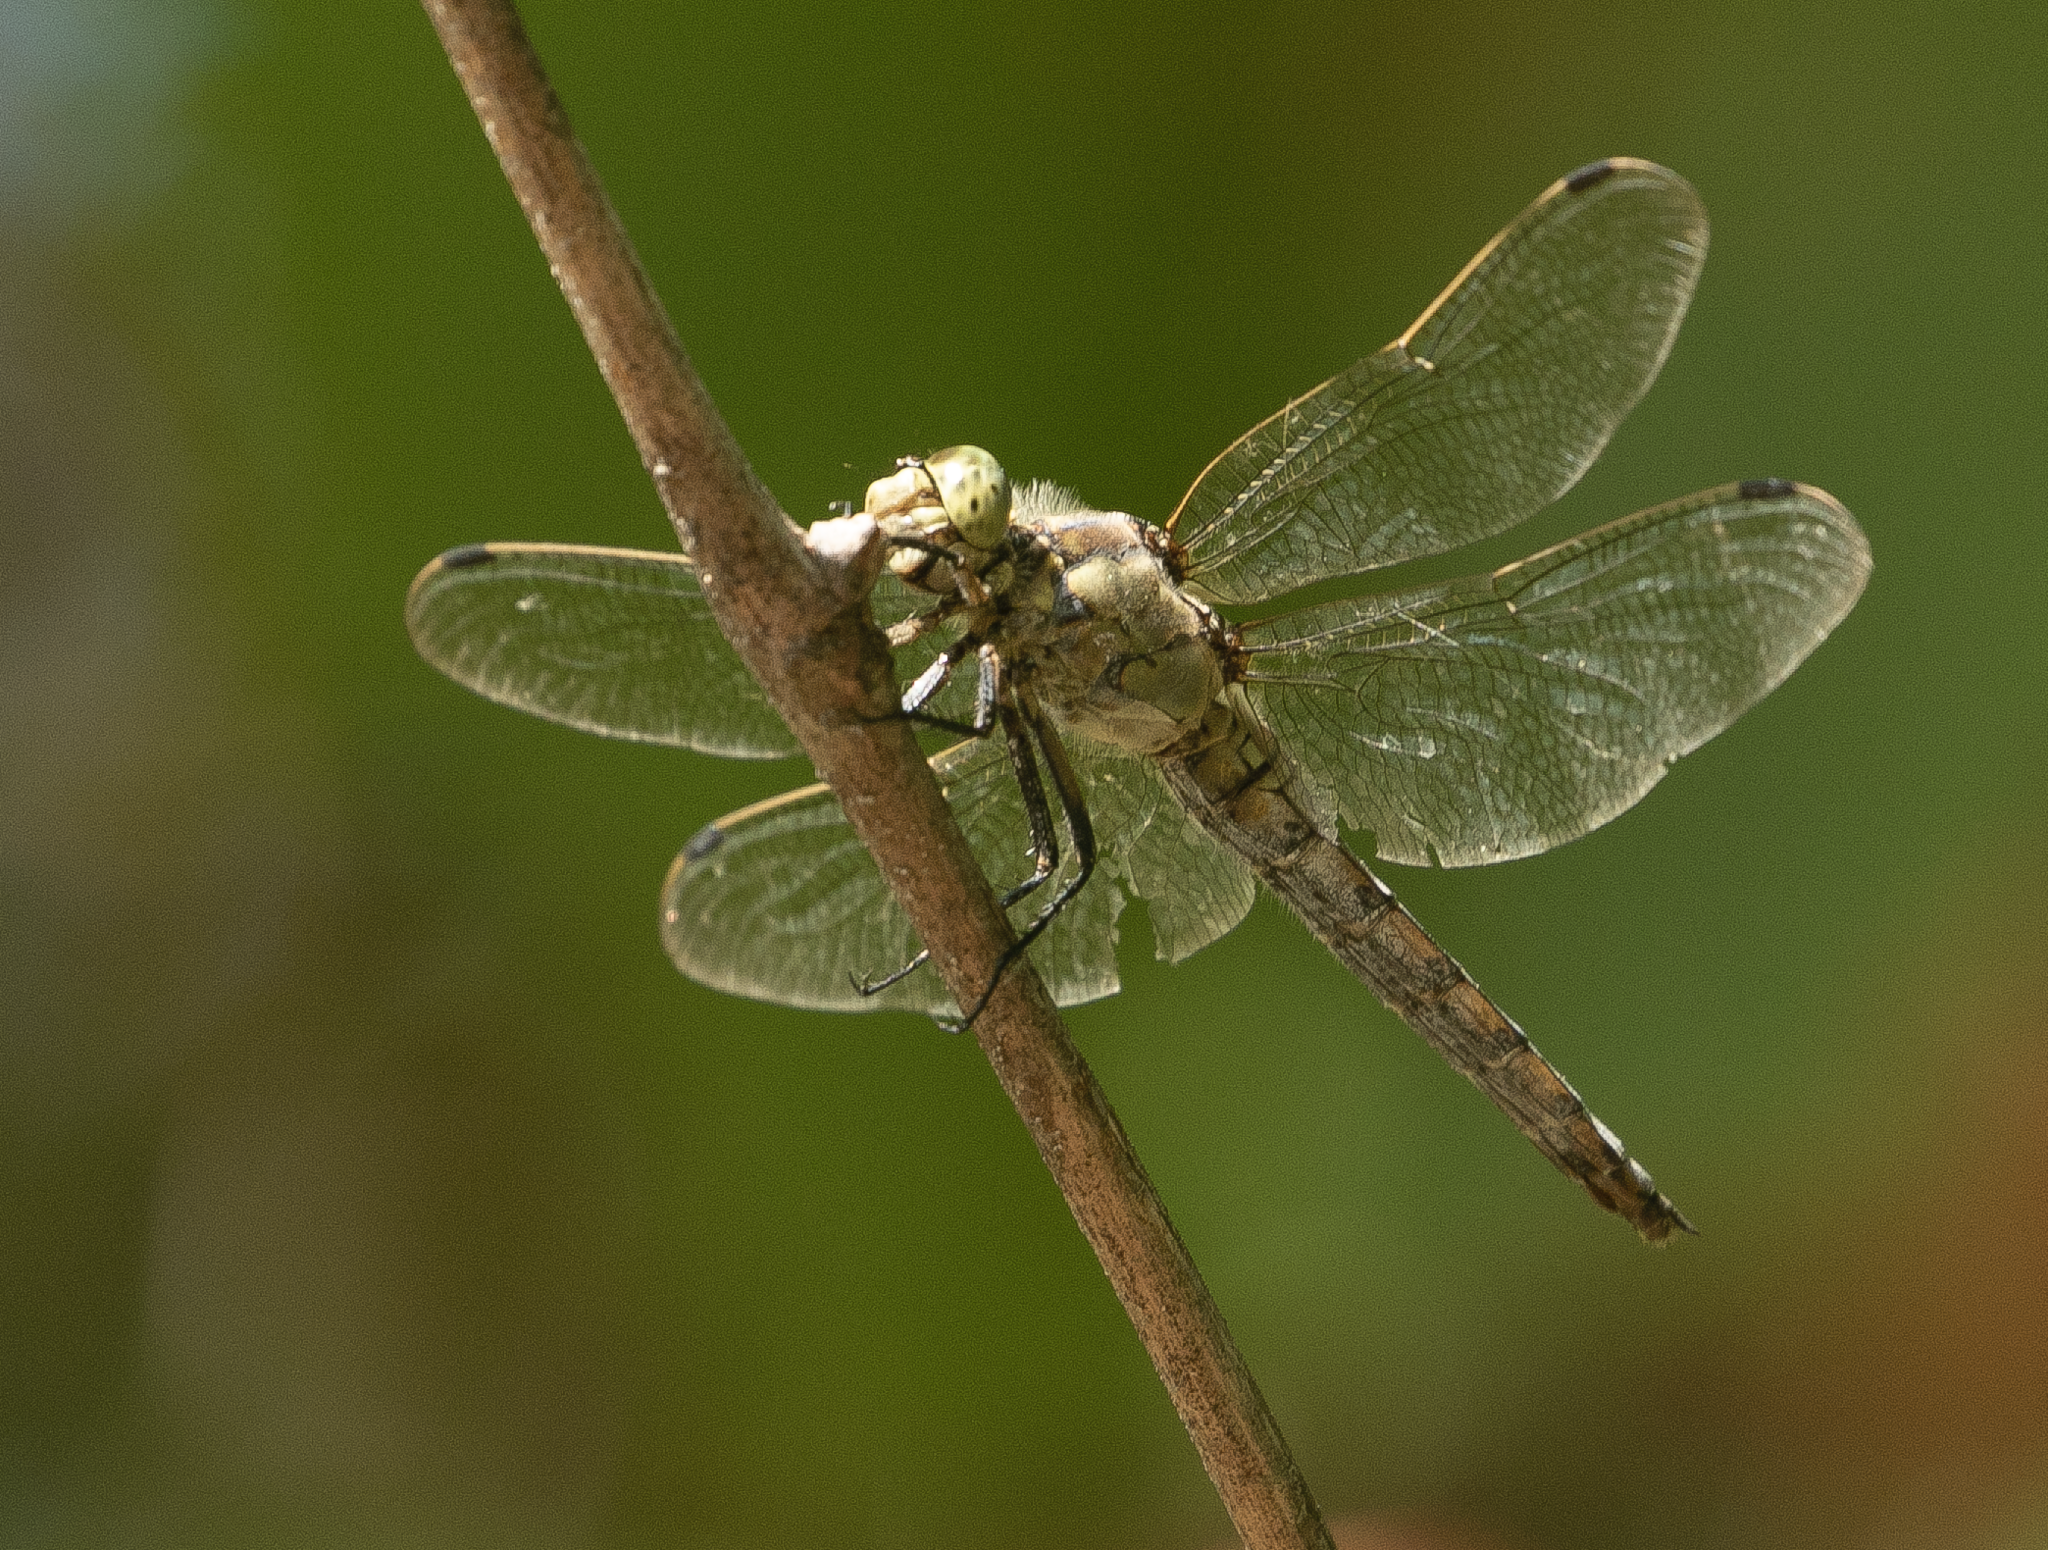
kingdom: Animalia
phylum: Arthropoda
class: Insecta
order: Odonata
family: Libellulidae
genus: Orthetrum
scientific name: Orthetrum cancellatum
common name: Black-tailed skimmer
